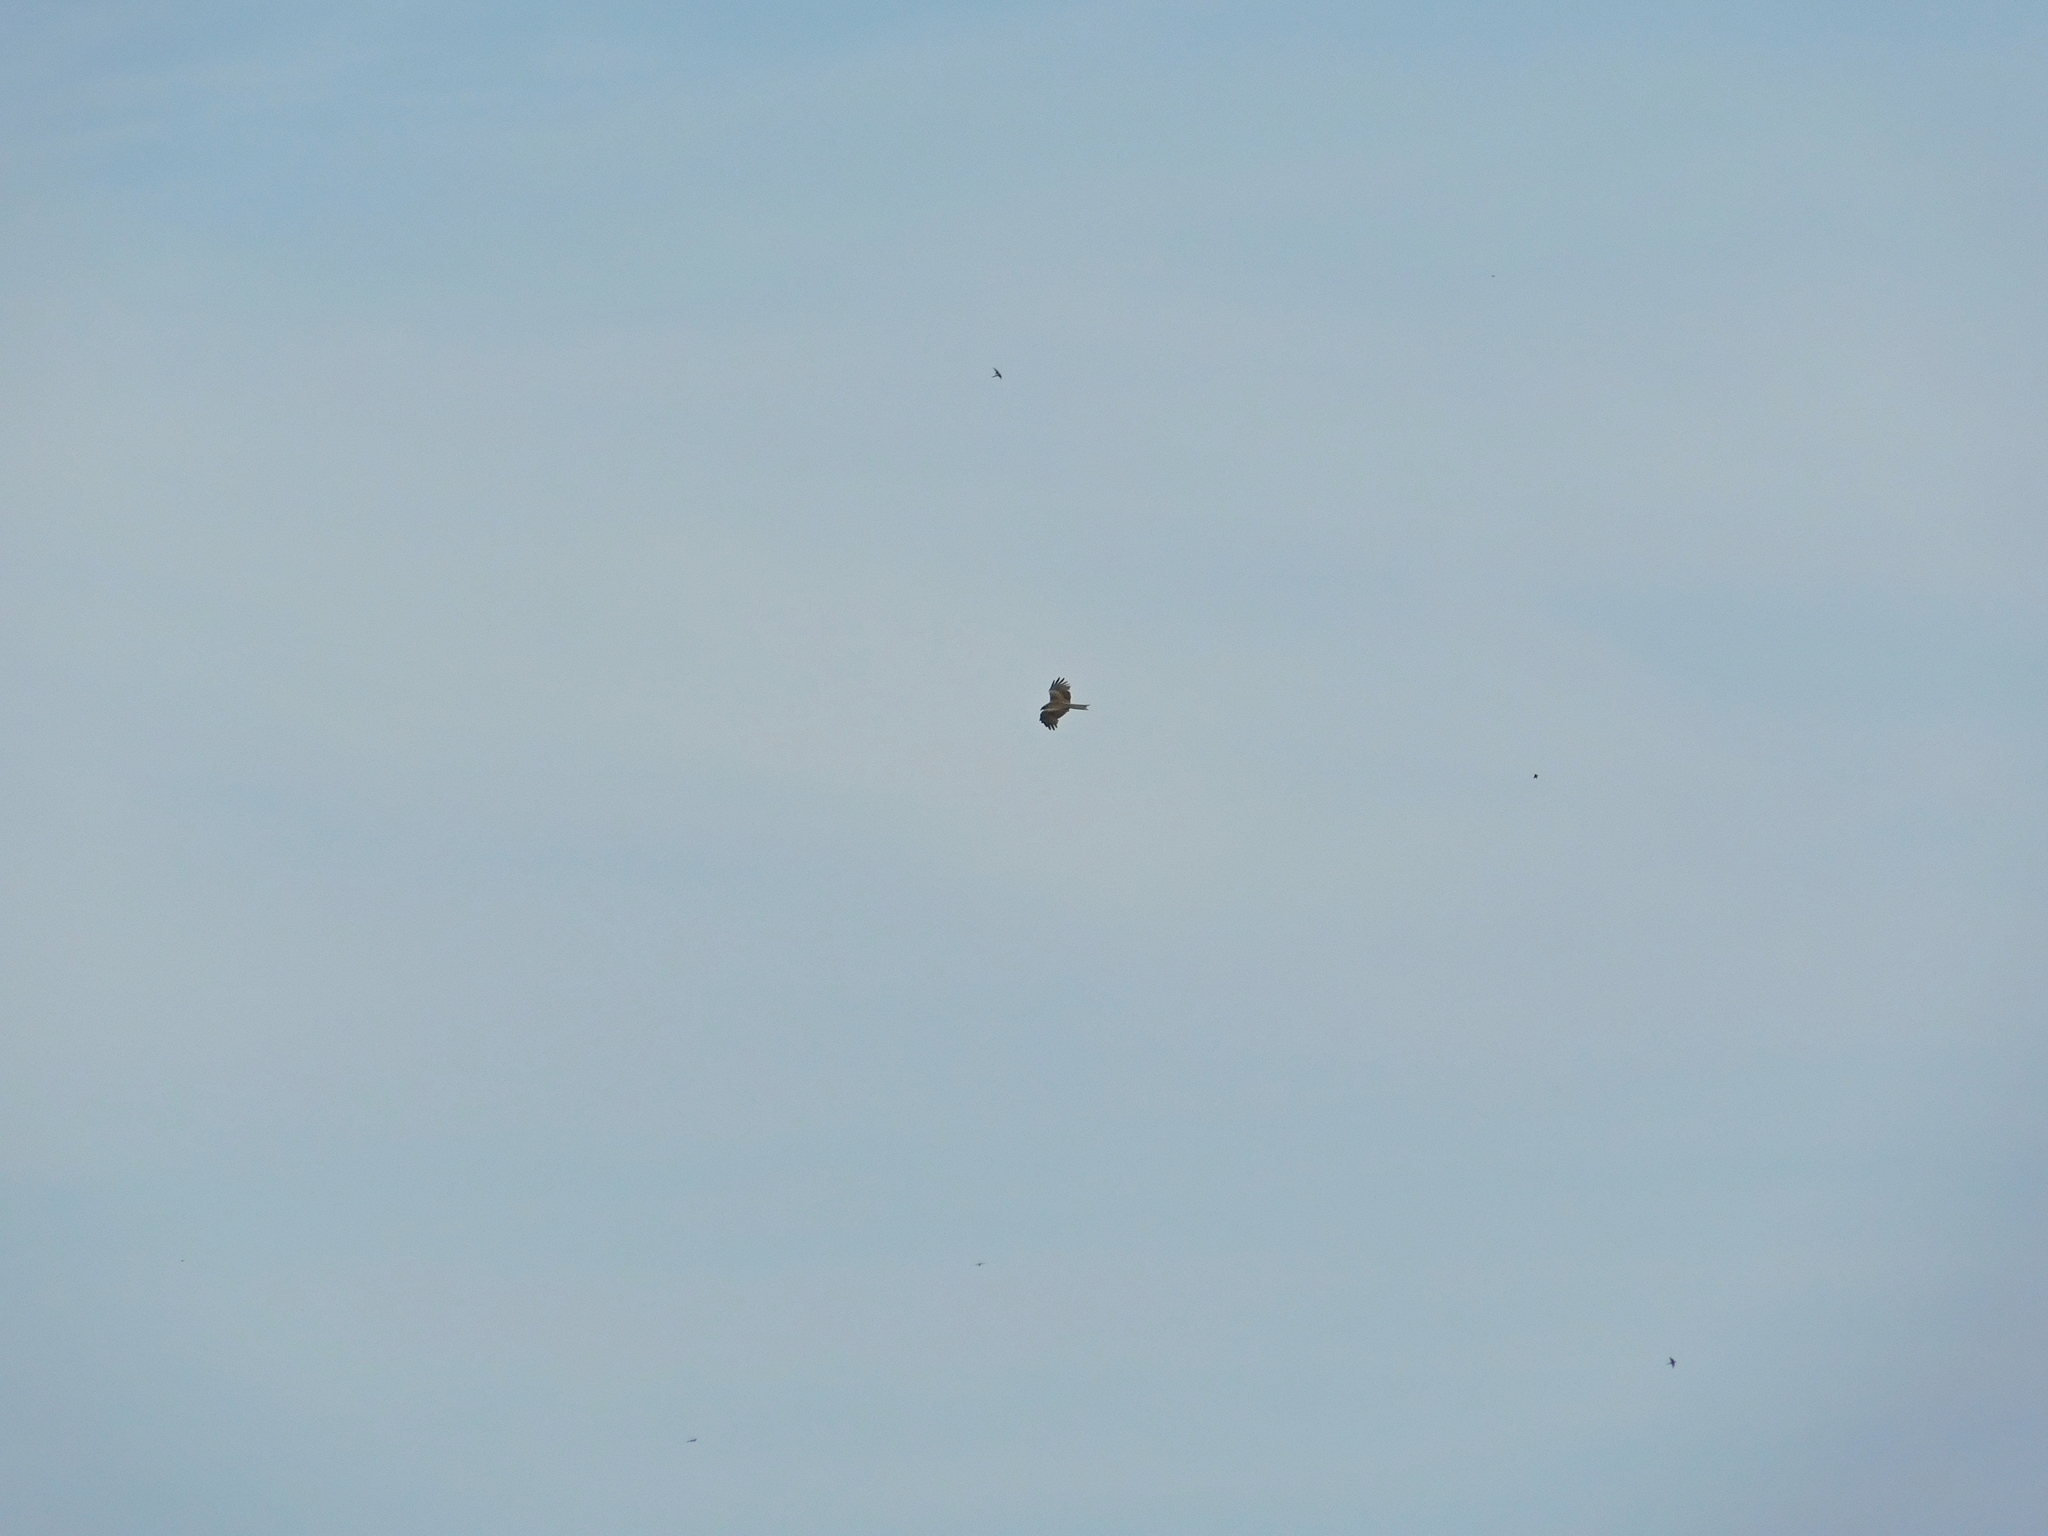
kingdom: Animalia
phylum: Chordata
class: Aves
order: Accipitriformes
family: Accipitridae
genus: Milvus
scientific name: Milvus migrans
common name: Black kite
